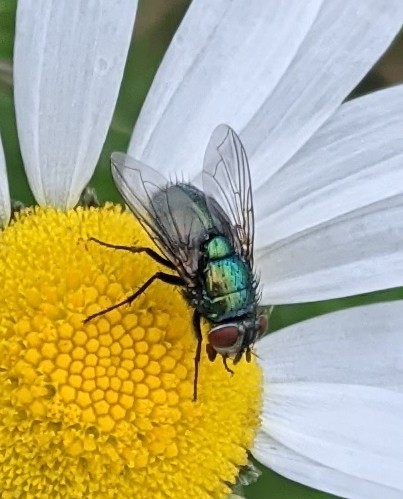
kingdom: Animalia
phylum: Arthropoda
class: Insecta
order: Diptera
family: Calliphoridae
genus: Lucilia
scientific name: Lucilia sericata
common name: Blow fly
